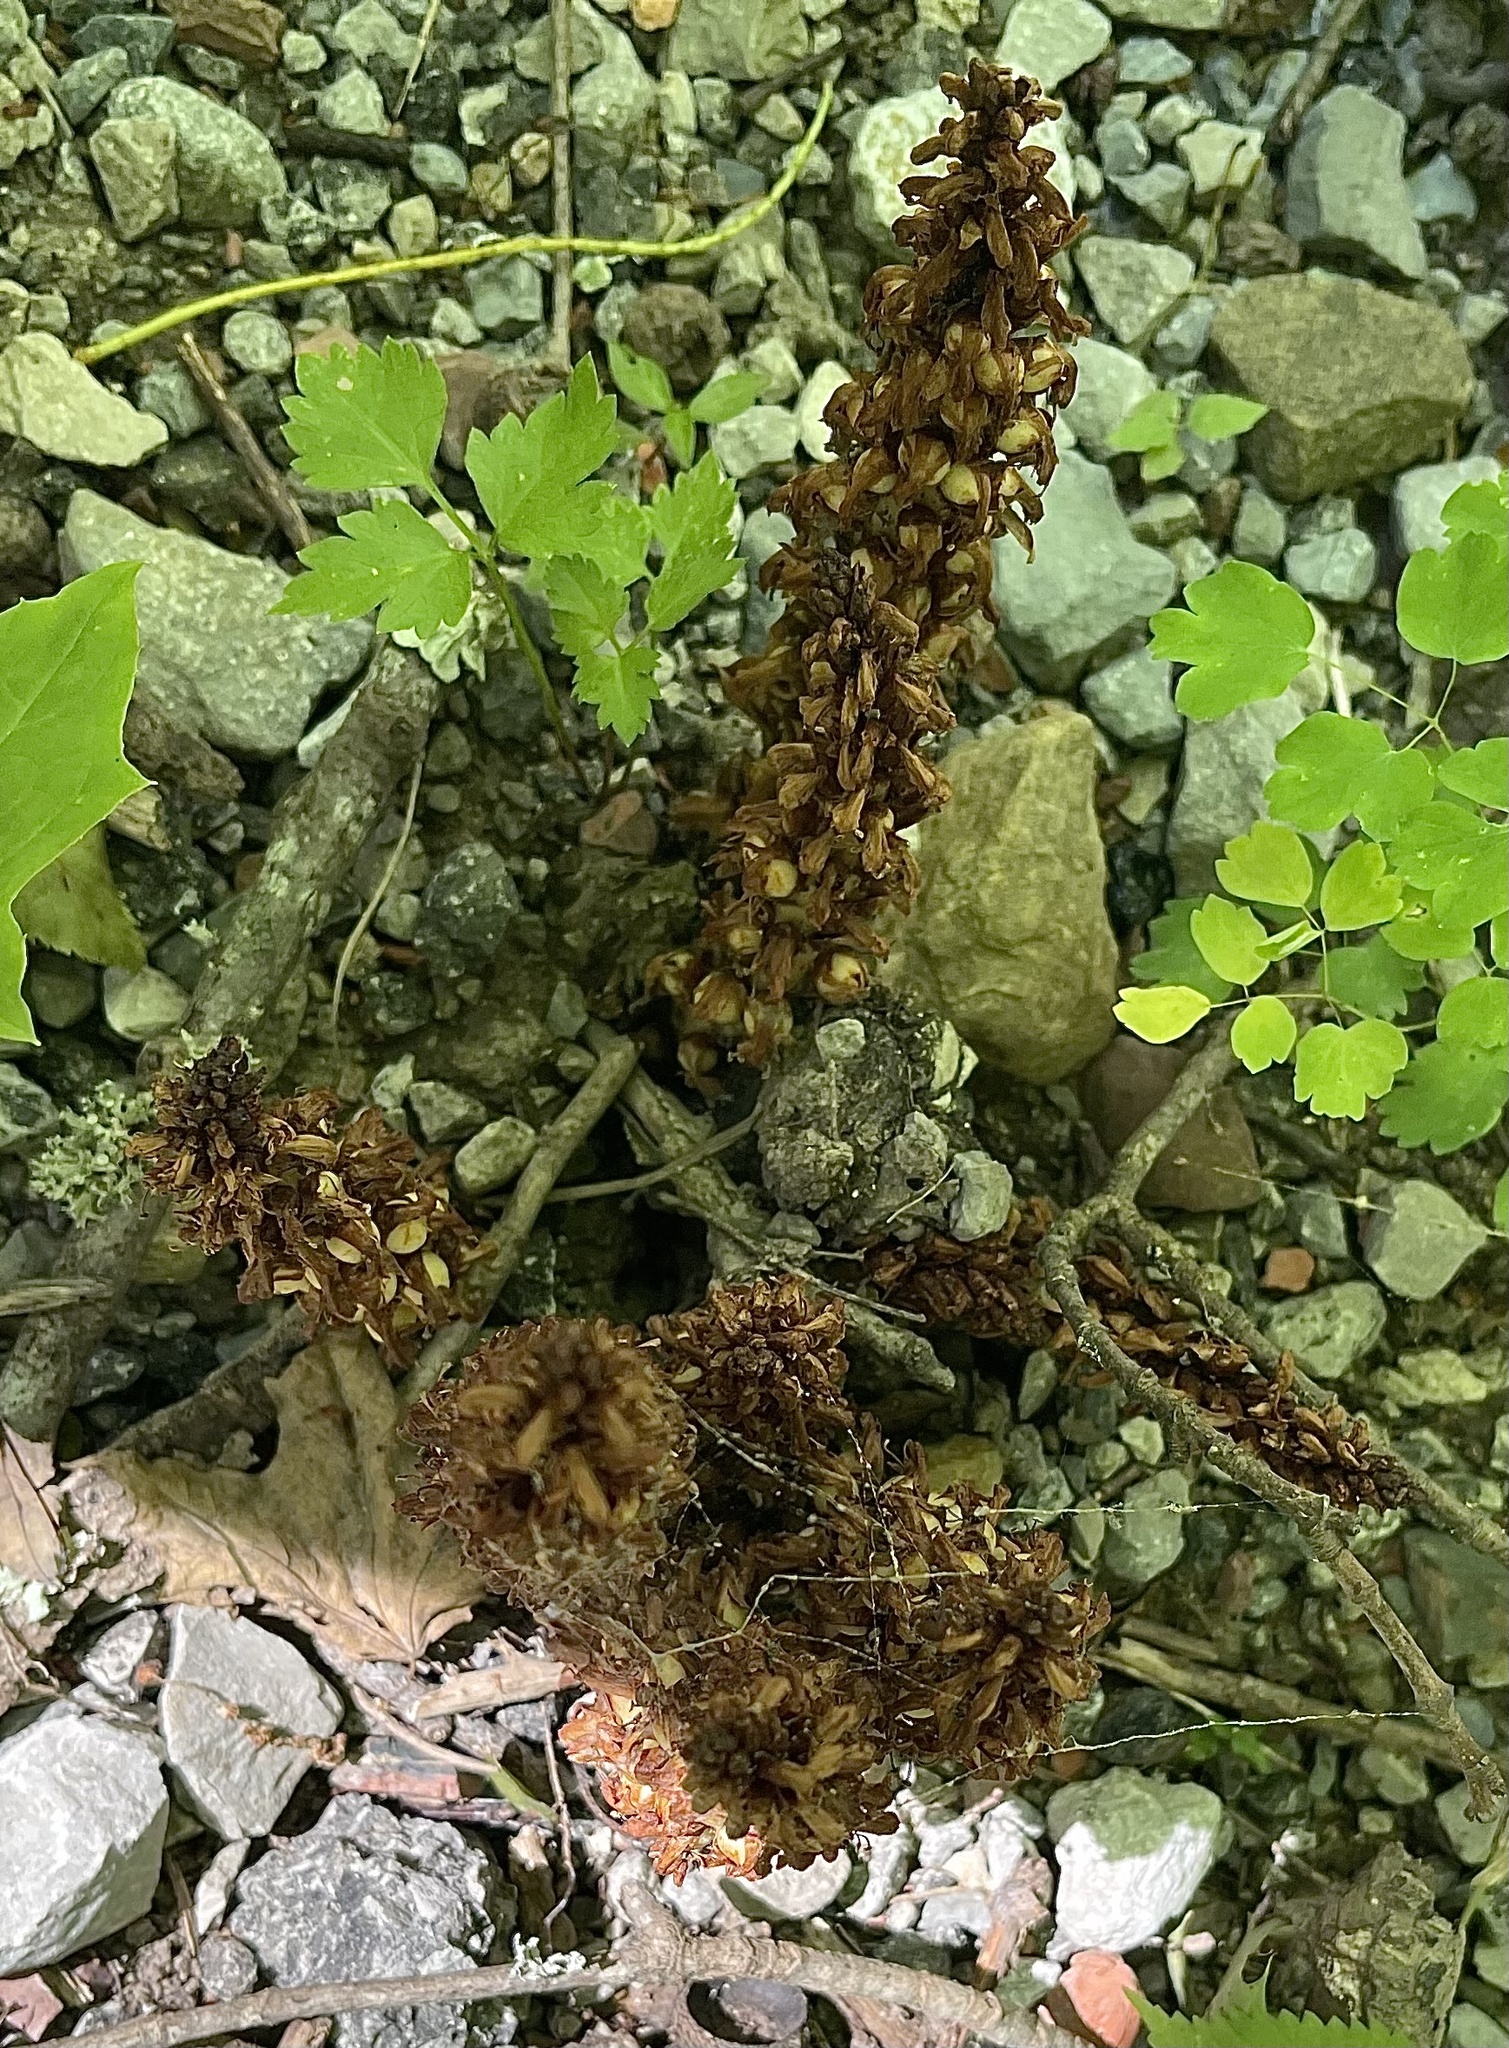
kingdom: Plantae
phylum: Tracheophyta
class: Magnoliopsida
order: Lamiales
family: Orobanchaceae
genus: Conopholis
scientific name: Conopholis americana
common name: American cancer-root
